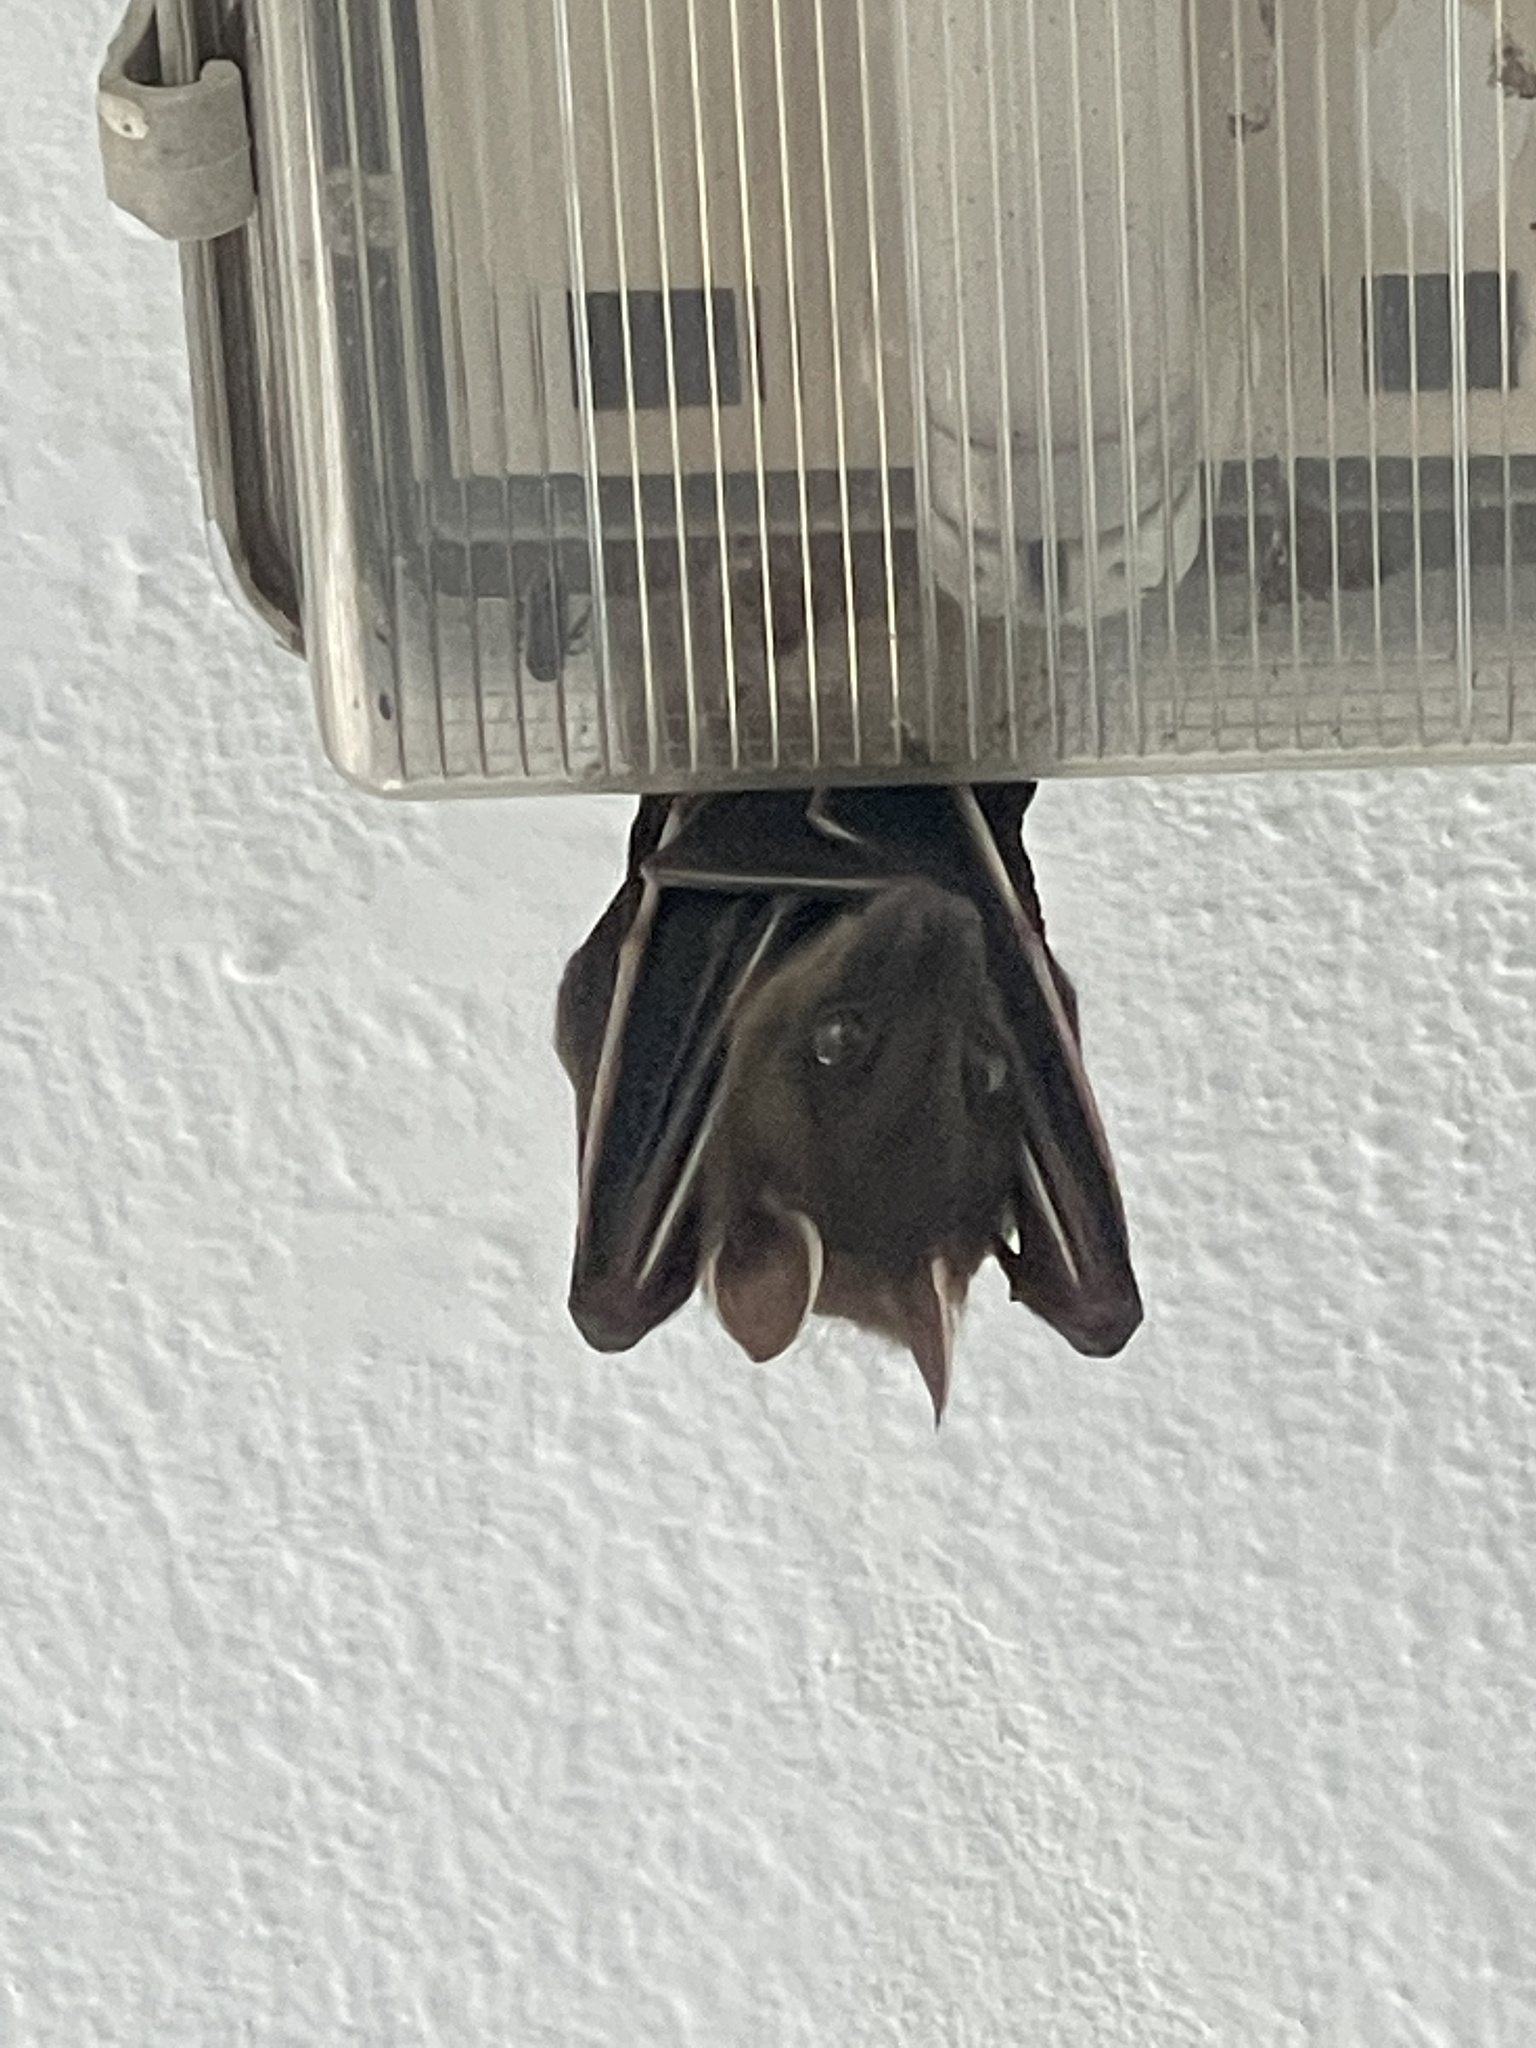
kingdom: Animalia
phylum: Chordata
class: Mammalia
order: Chiroptera
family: Pteropodidae
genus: Cynopterus
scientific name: Cynopterus sphinx
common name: Greater short-nosed fruit bat
